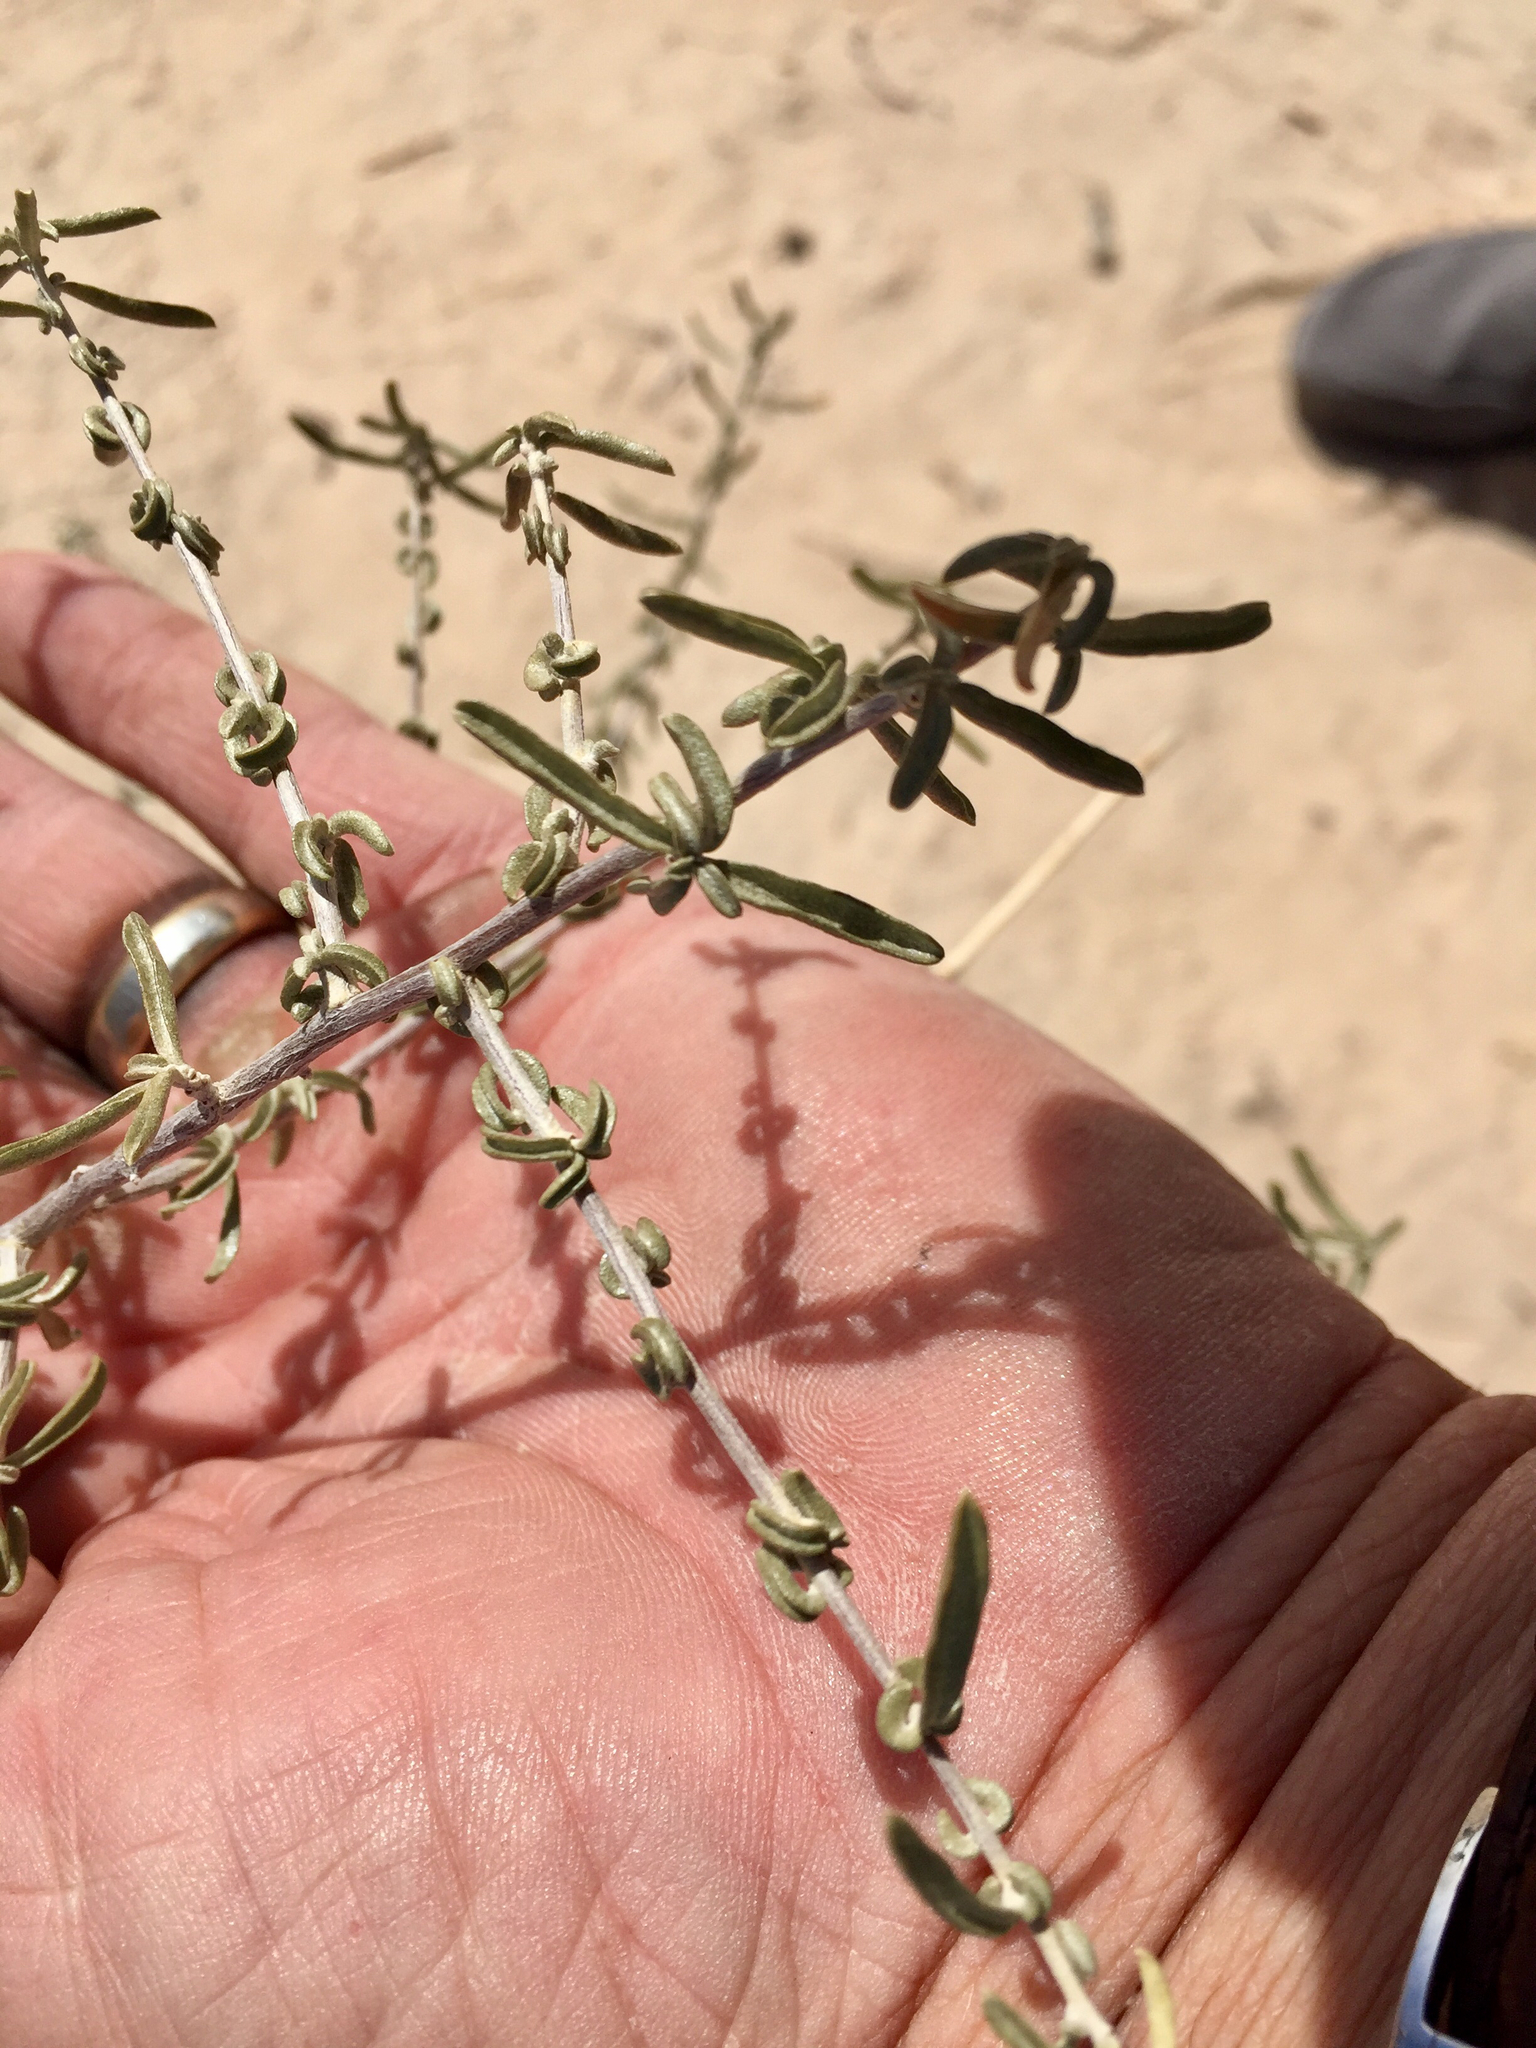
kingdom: Plantae
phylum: Tracheophyta
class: Magnoliopsida
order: Caryophyllales
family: Amaranthaceae
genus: Atriplex
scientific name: Atriplex canescens
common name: Four-wing saltbush
